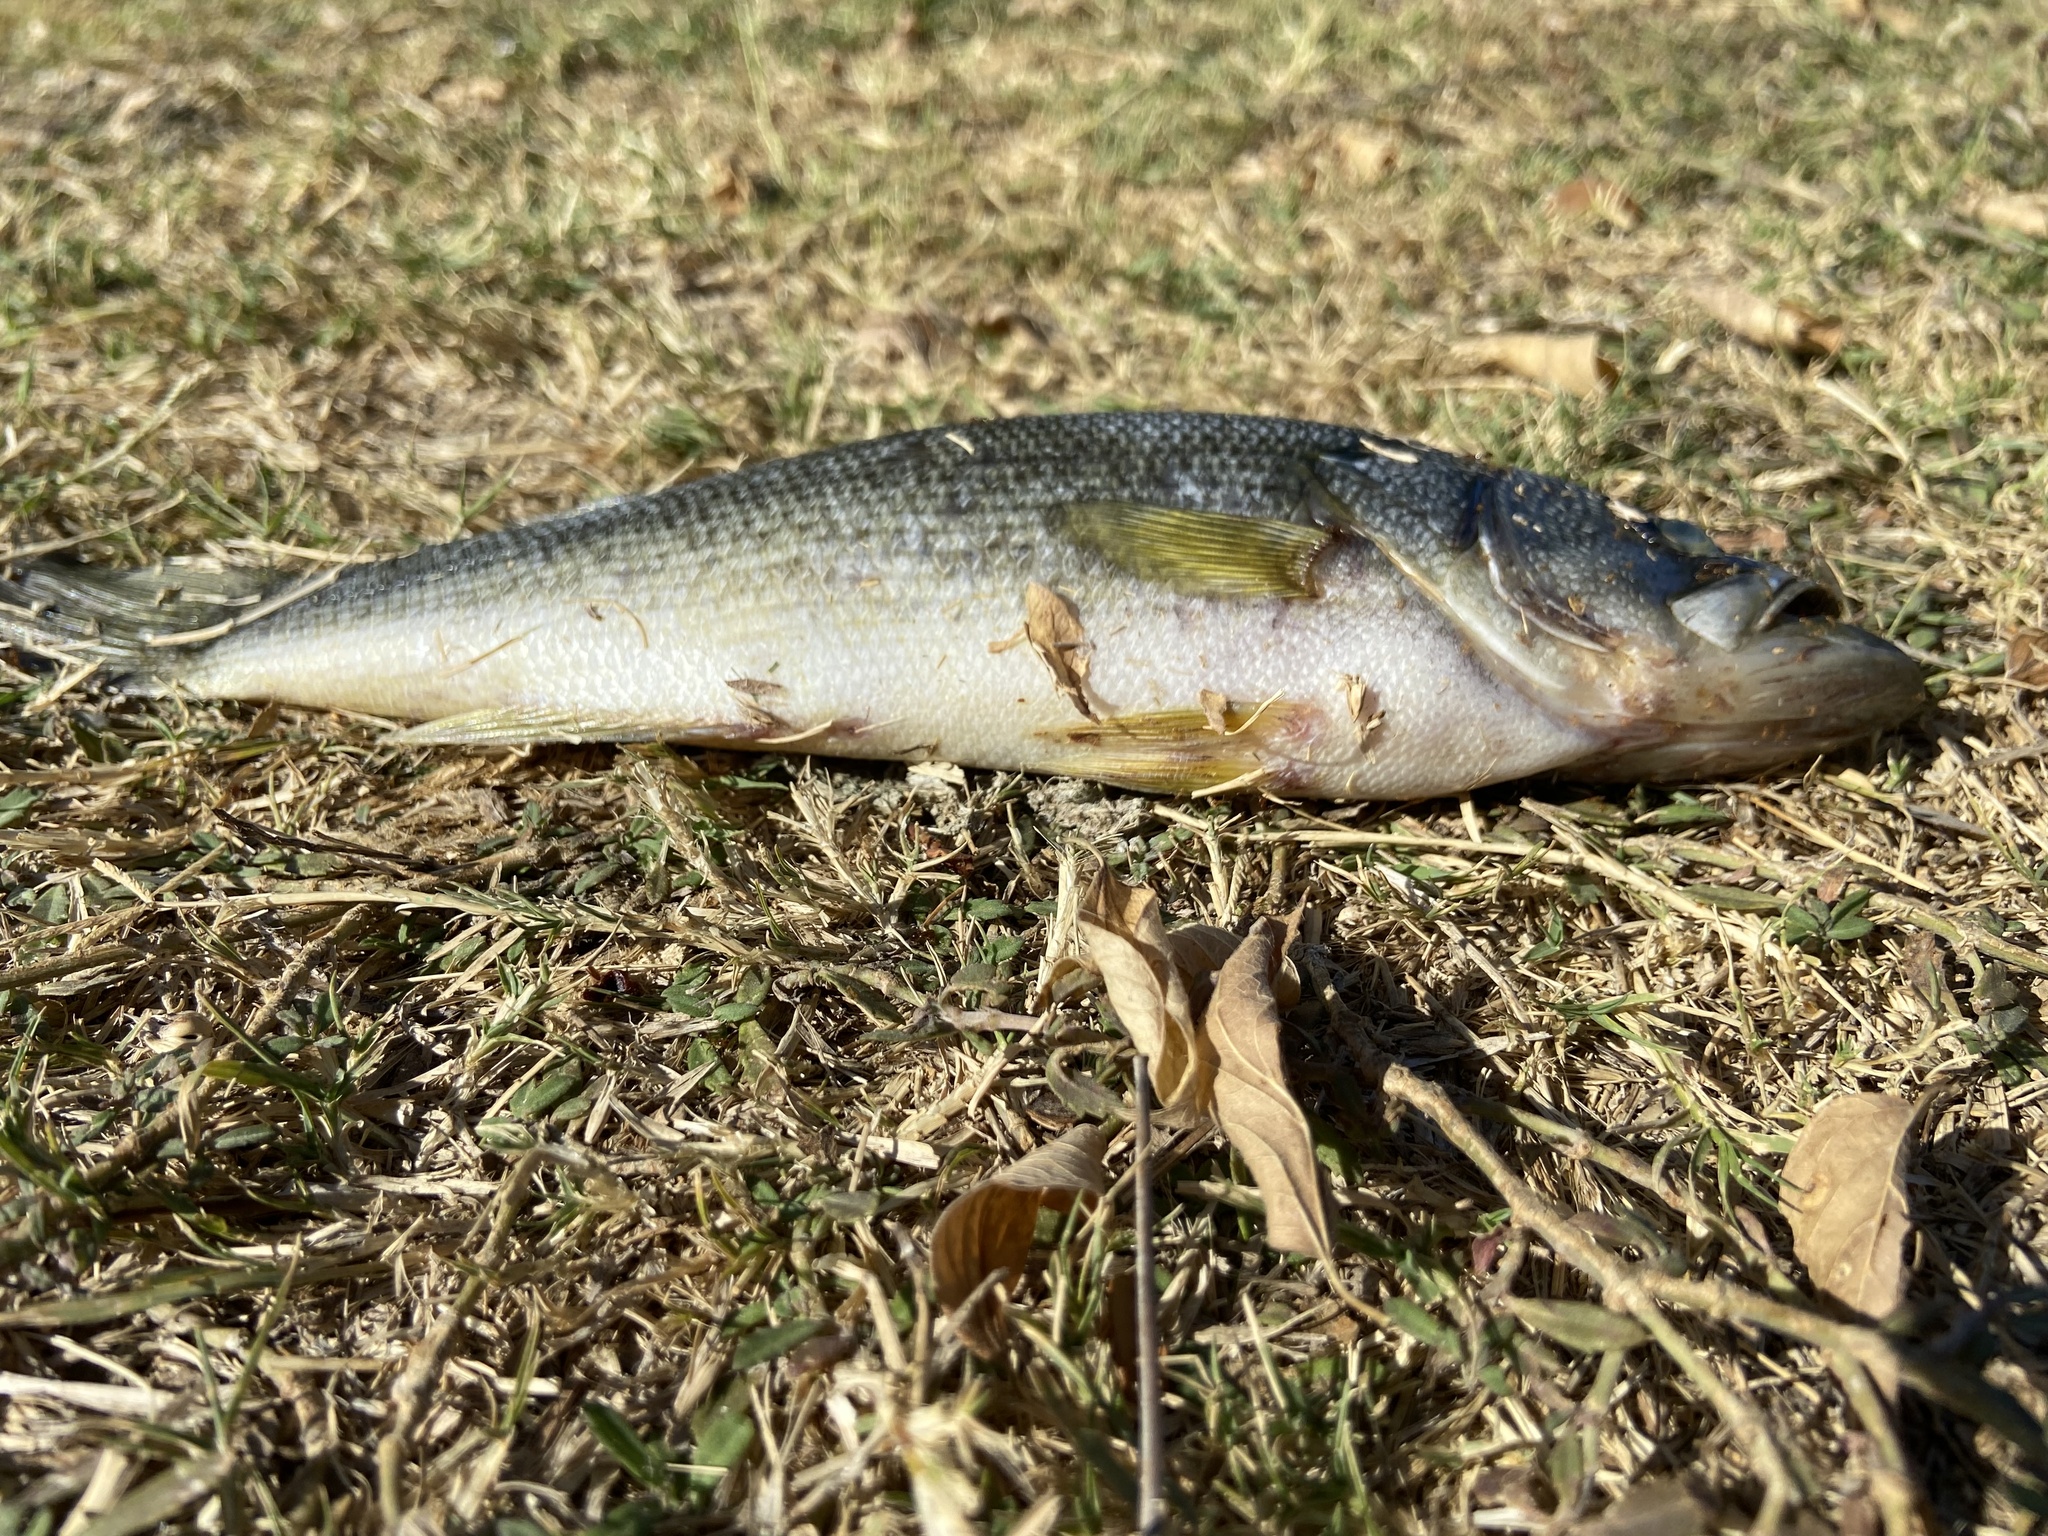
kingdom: Animalia
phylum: Chordata
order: Perciformes
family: Centrarchidae
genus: Micropterus
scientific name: Micropterus
